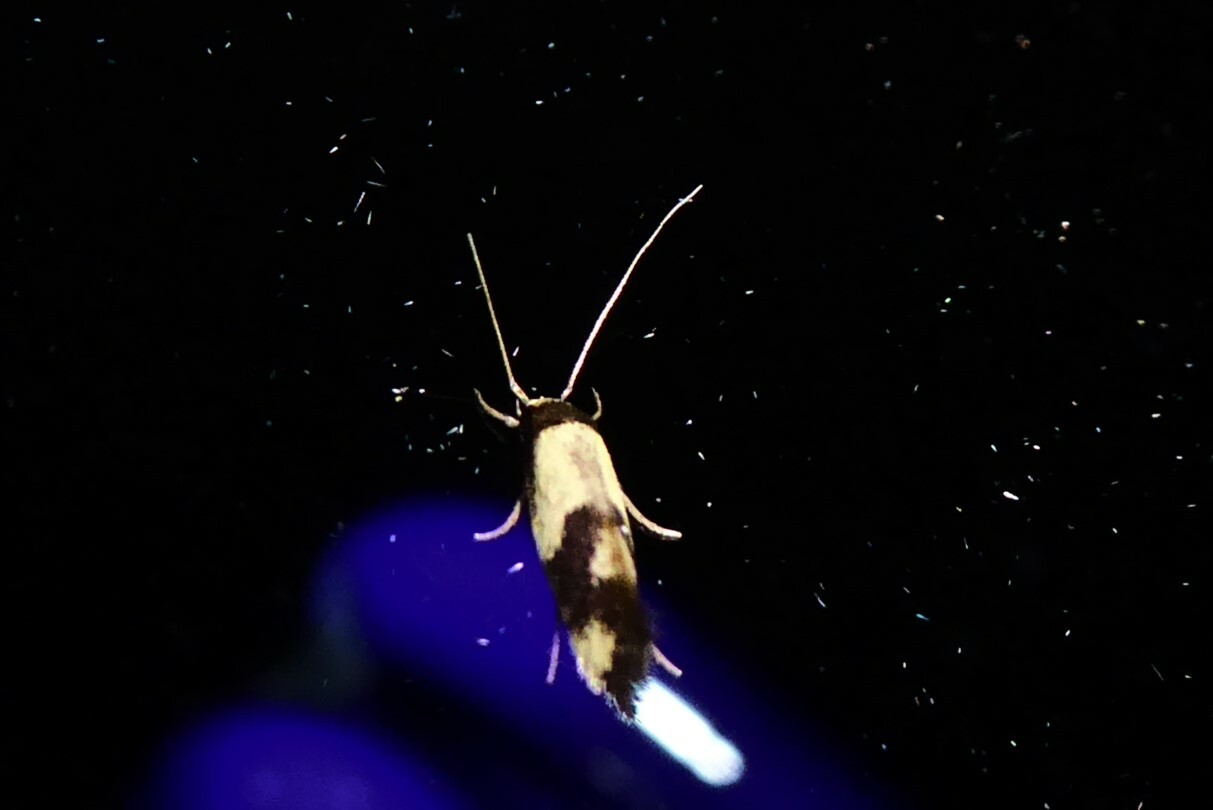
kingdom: Animalia
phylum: Arthropoda
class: Insecta
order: Lepidoptera
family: Tineidae
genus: Opogona
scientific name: Opogona comptella
